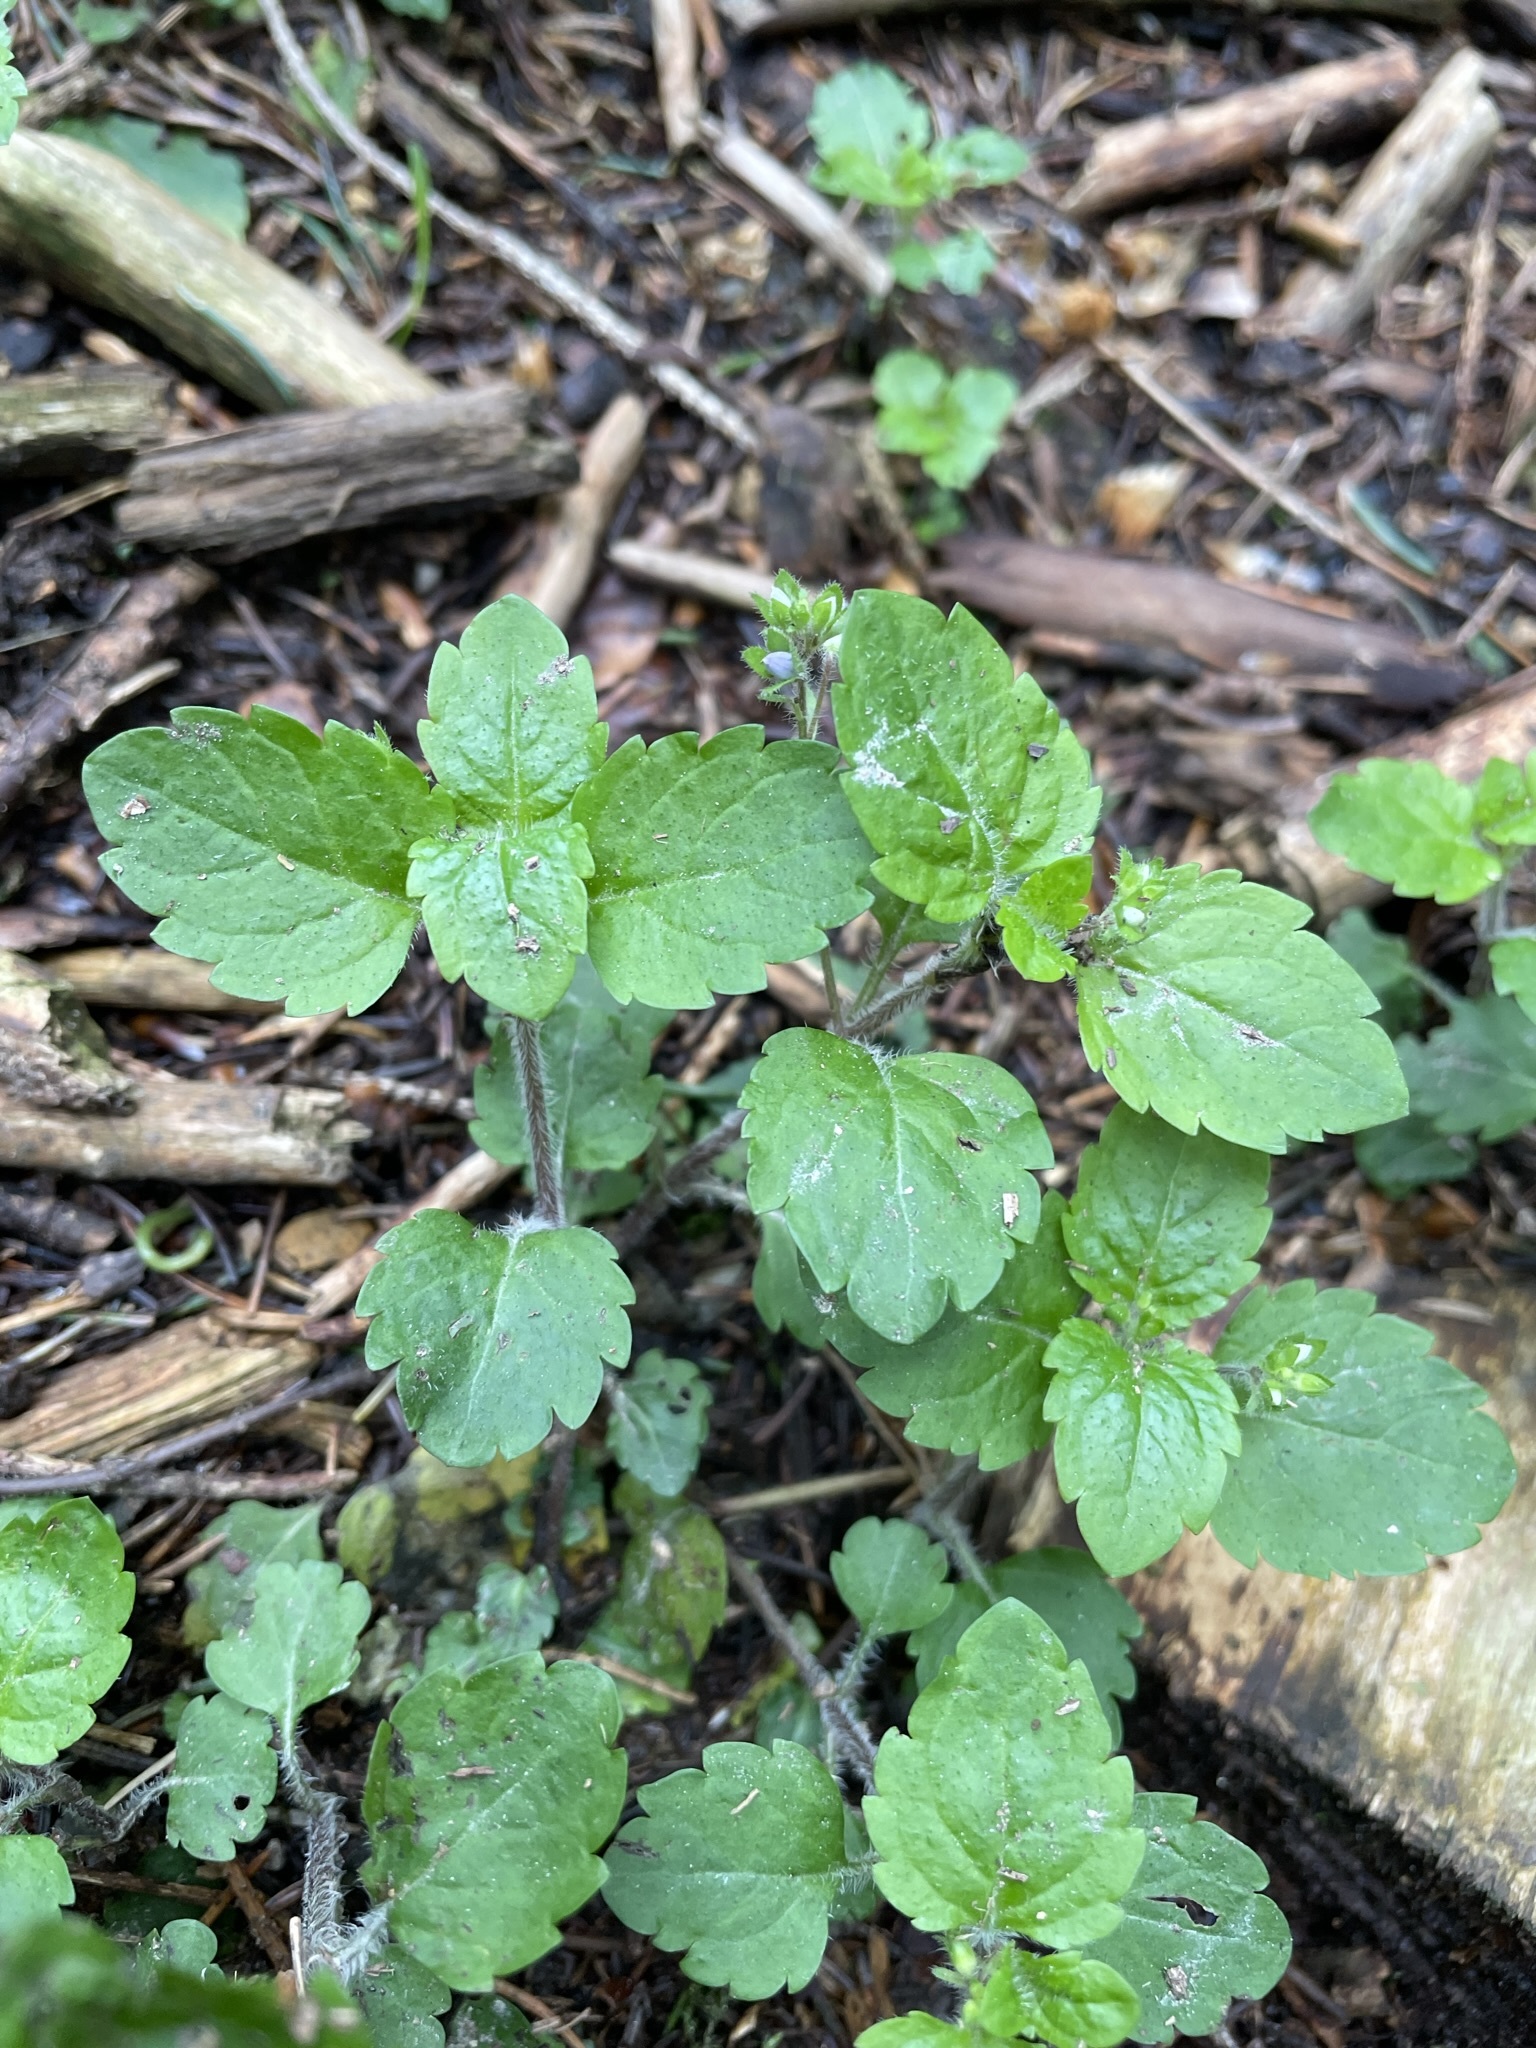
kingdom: Plantae
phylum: Tracheophyta
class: Magnoliopsida
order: Lamiales
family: Plantaginaceae
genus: Veronica
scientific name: Veronica montana
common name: Wood speedwell
